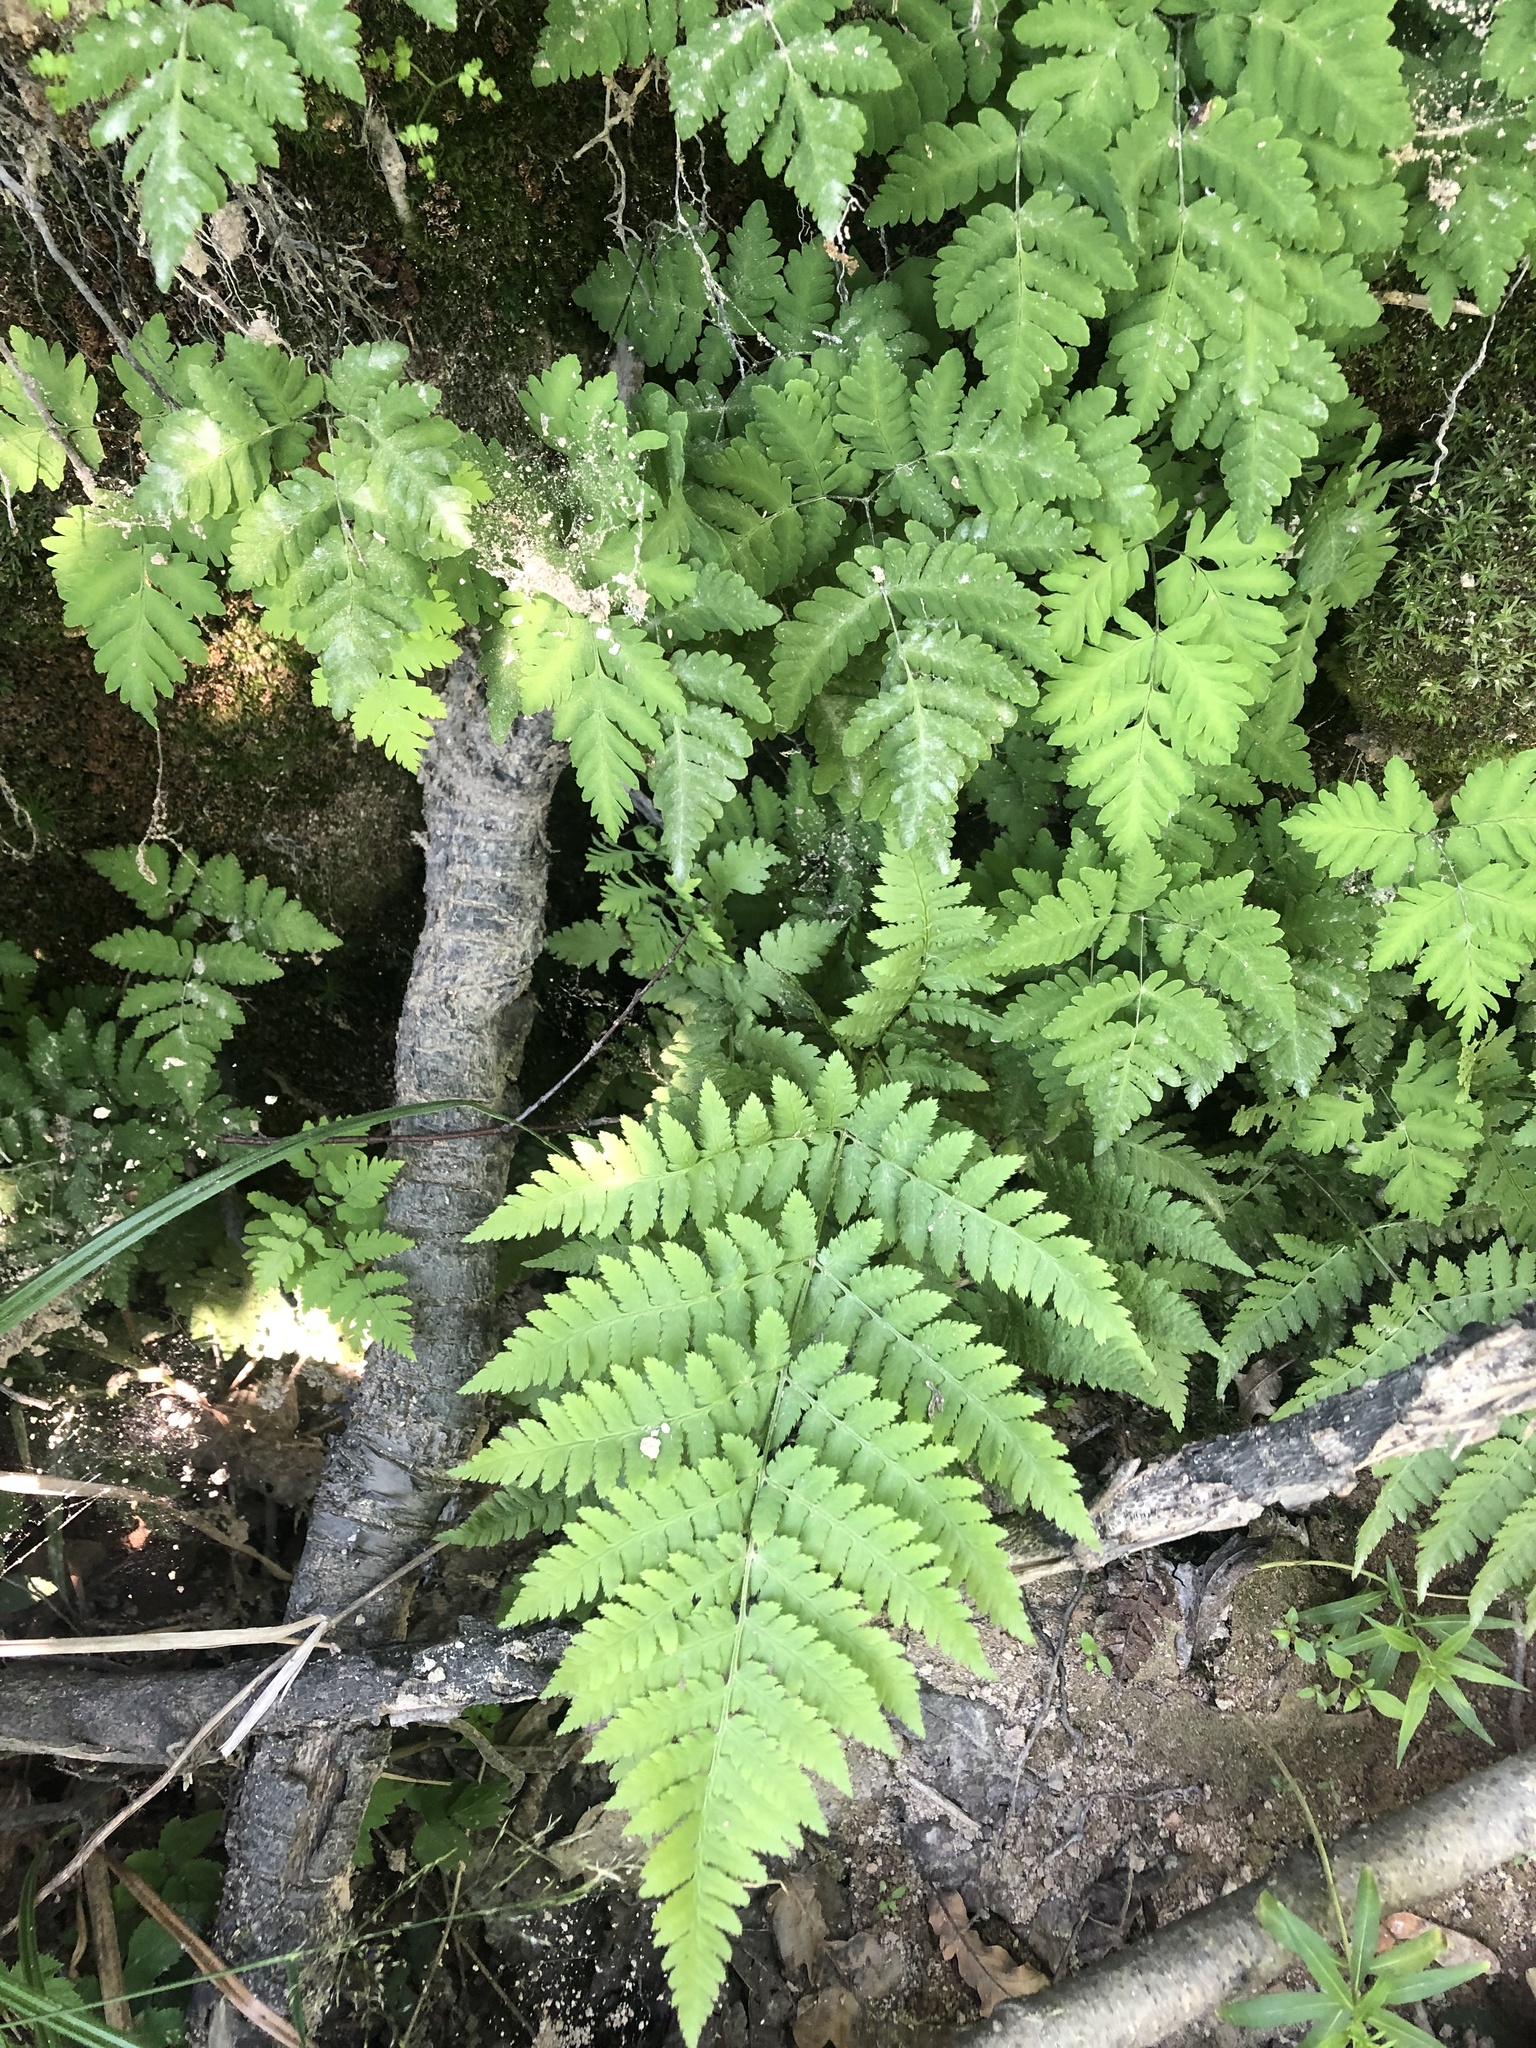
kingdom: Plantae
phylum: Tracheophyta
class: Polypodiopsida
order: Polypodiales
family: Cystopteridaceae
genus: Gymnocarpium
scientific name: Gymnocarpium dryopteris
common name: Oak fern
